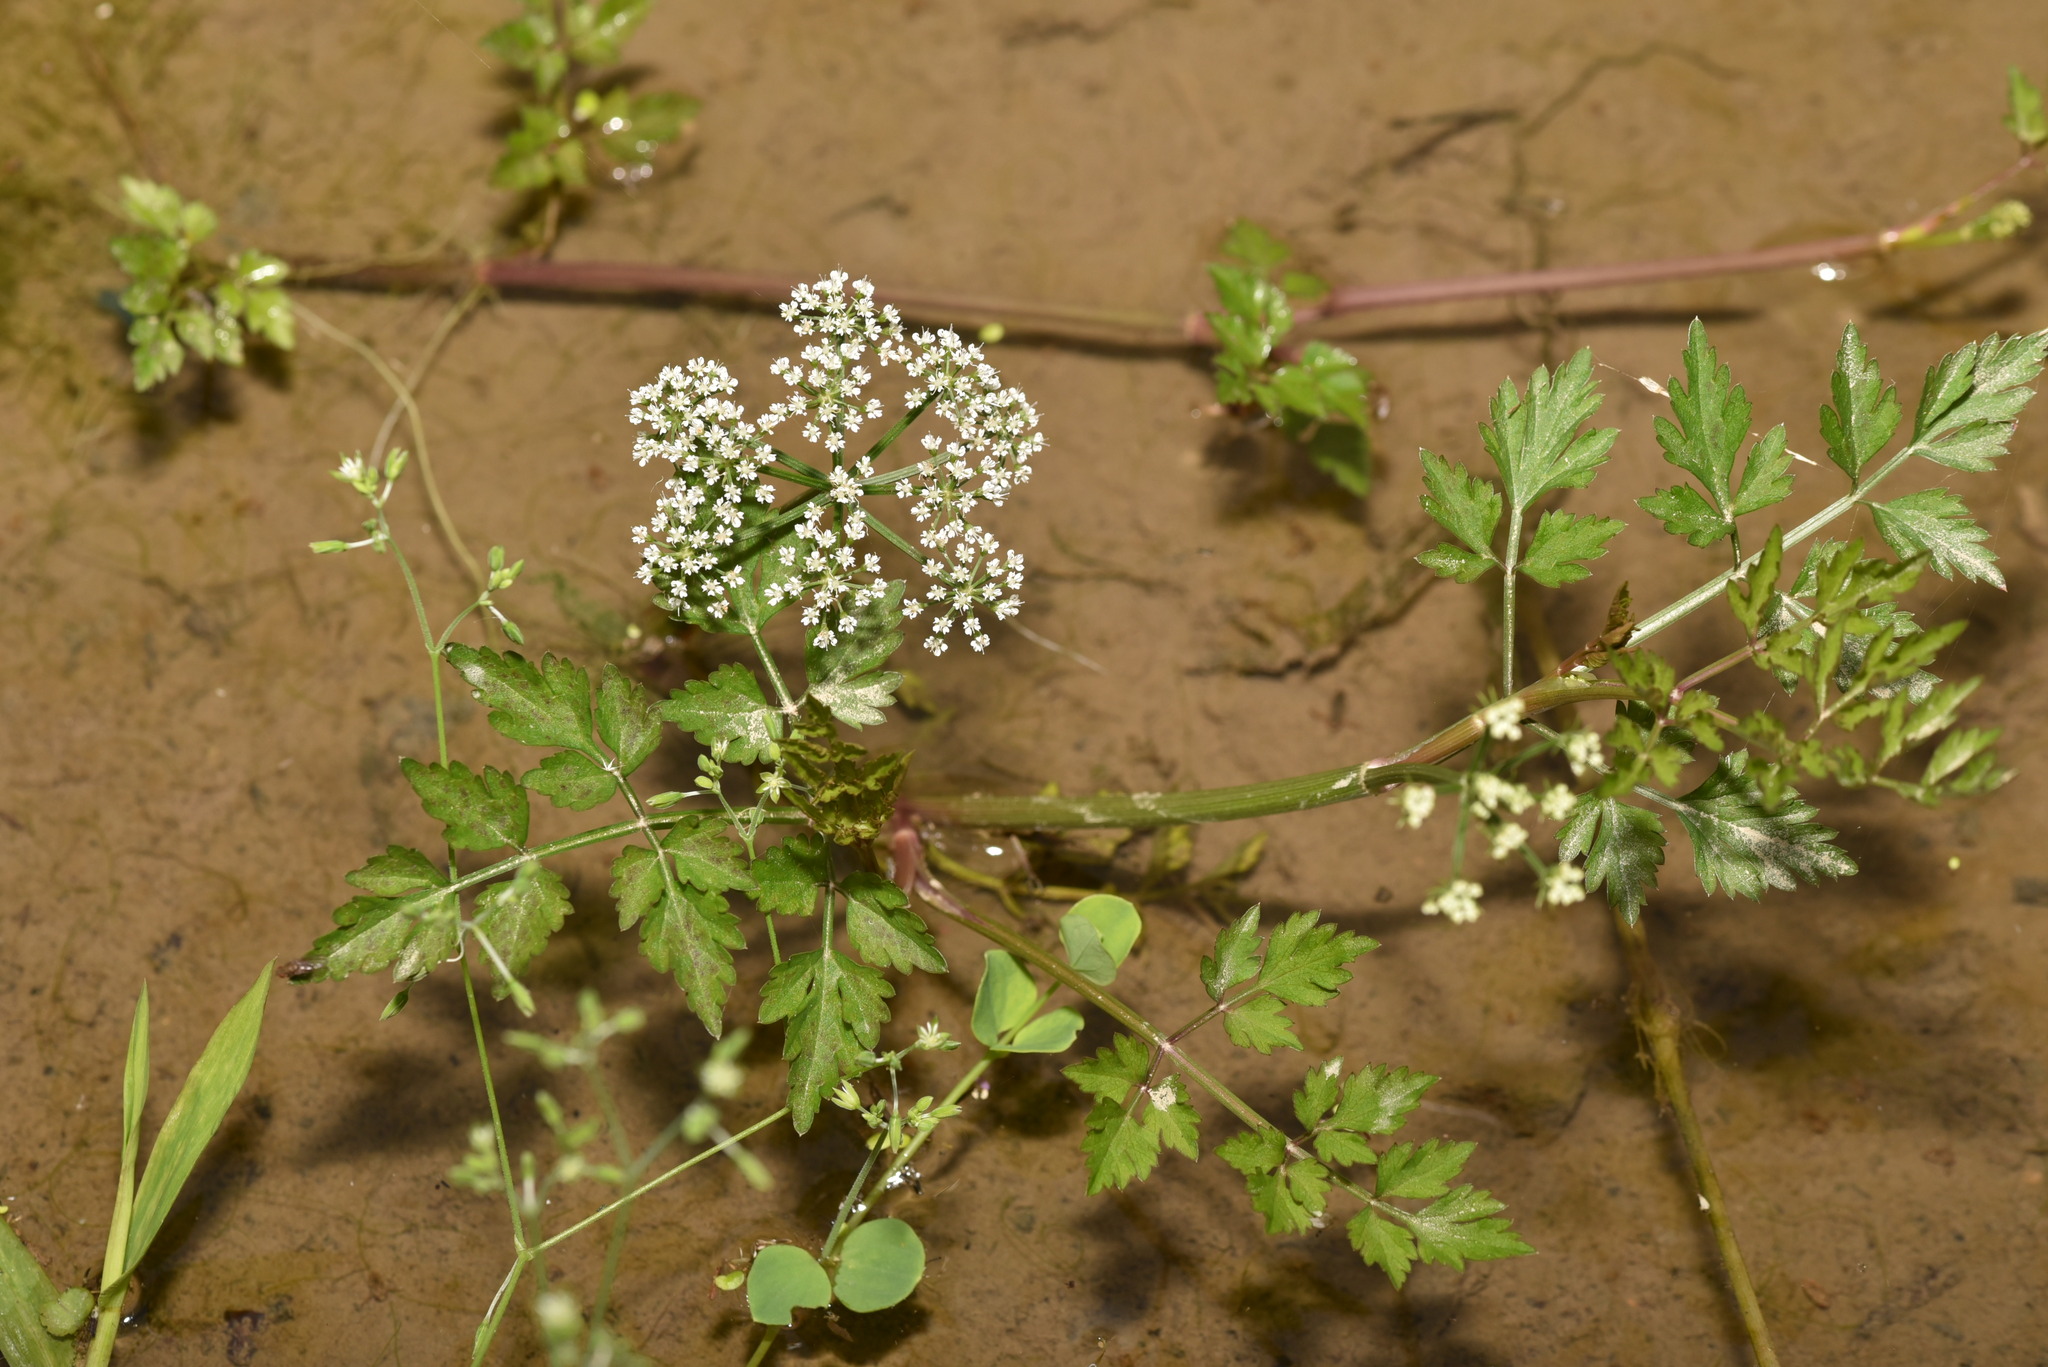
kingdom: Plantae
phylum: Tracheophyta
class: Magnoliopsida
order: Apiales
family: Apiaceae
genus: Oenanthe
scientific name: Oenanthe javanica
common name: Java water-dropwort
